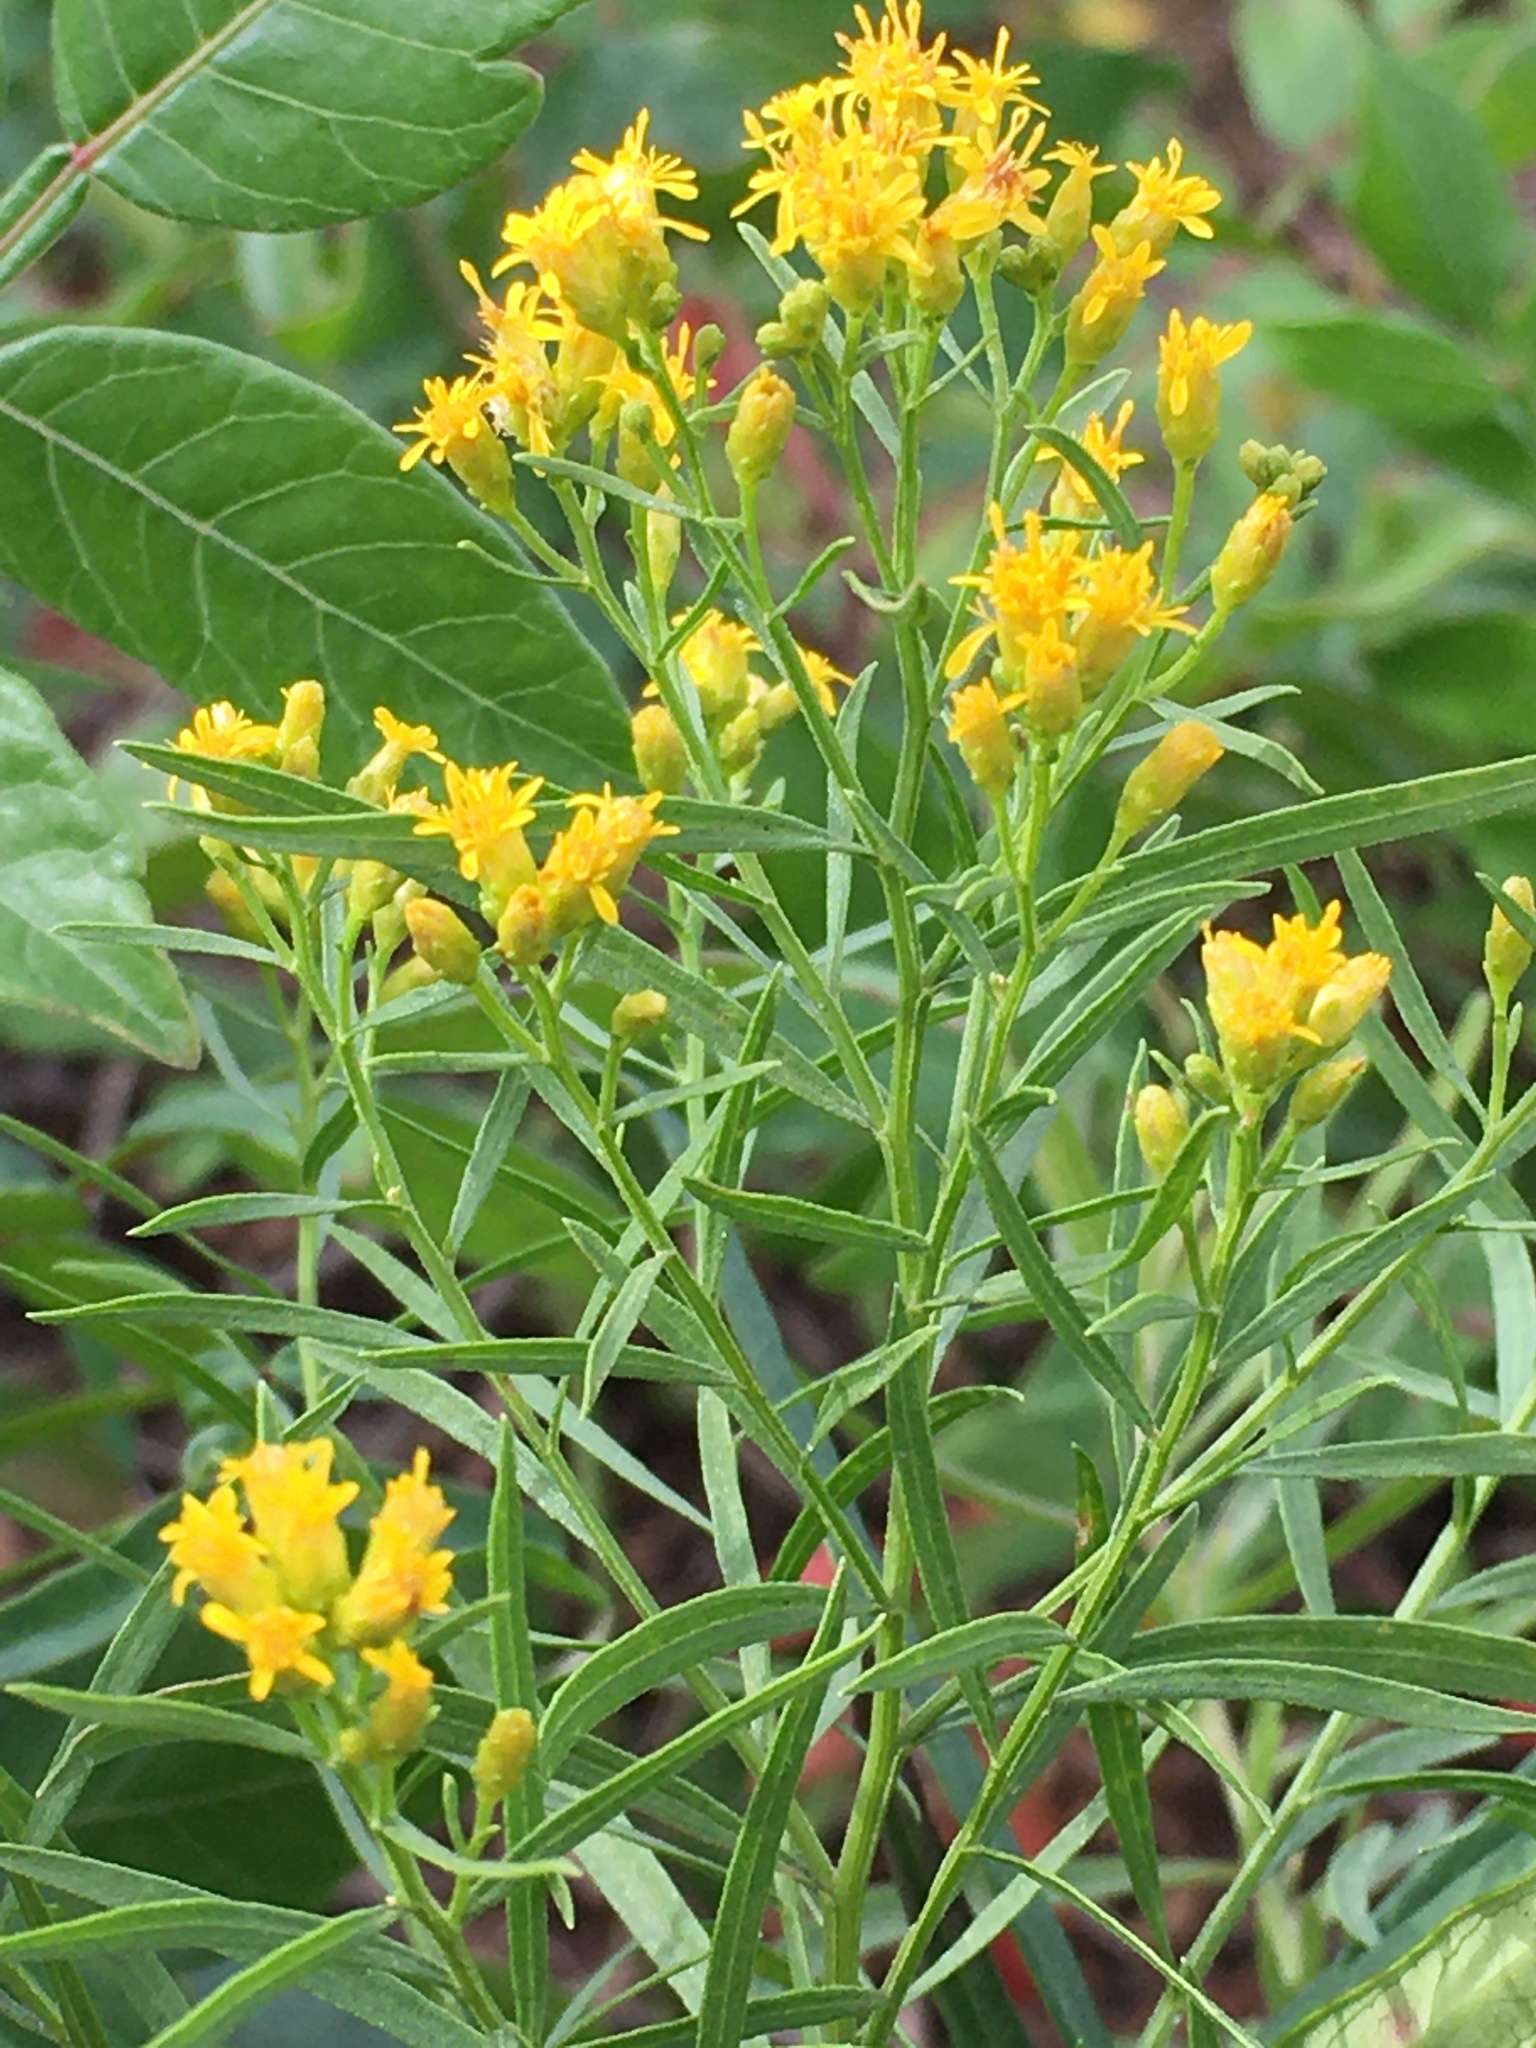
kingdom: Plantae
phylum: Tracheophyta
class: Magnoliopsida
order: Asterales
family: Asteraceae
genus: Euthamia
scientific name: Euthamia caroliniana
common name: Coastal plain goldentop
